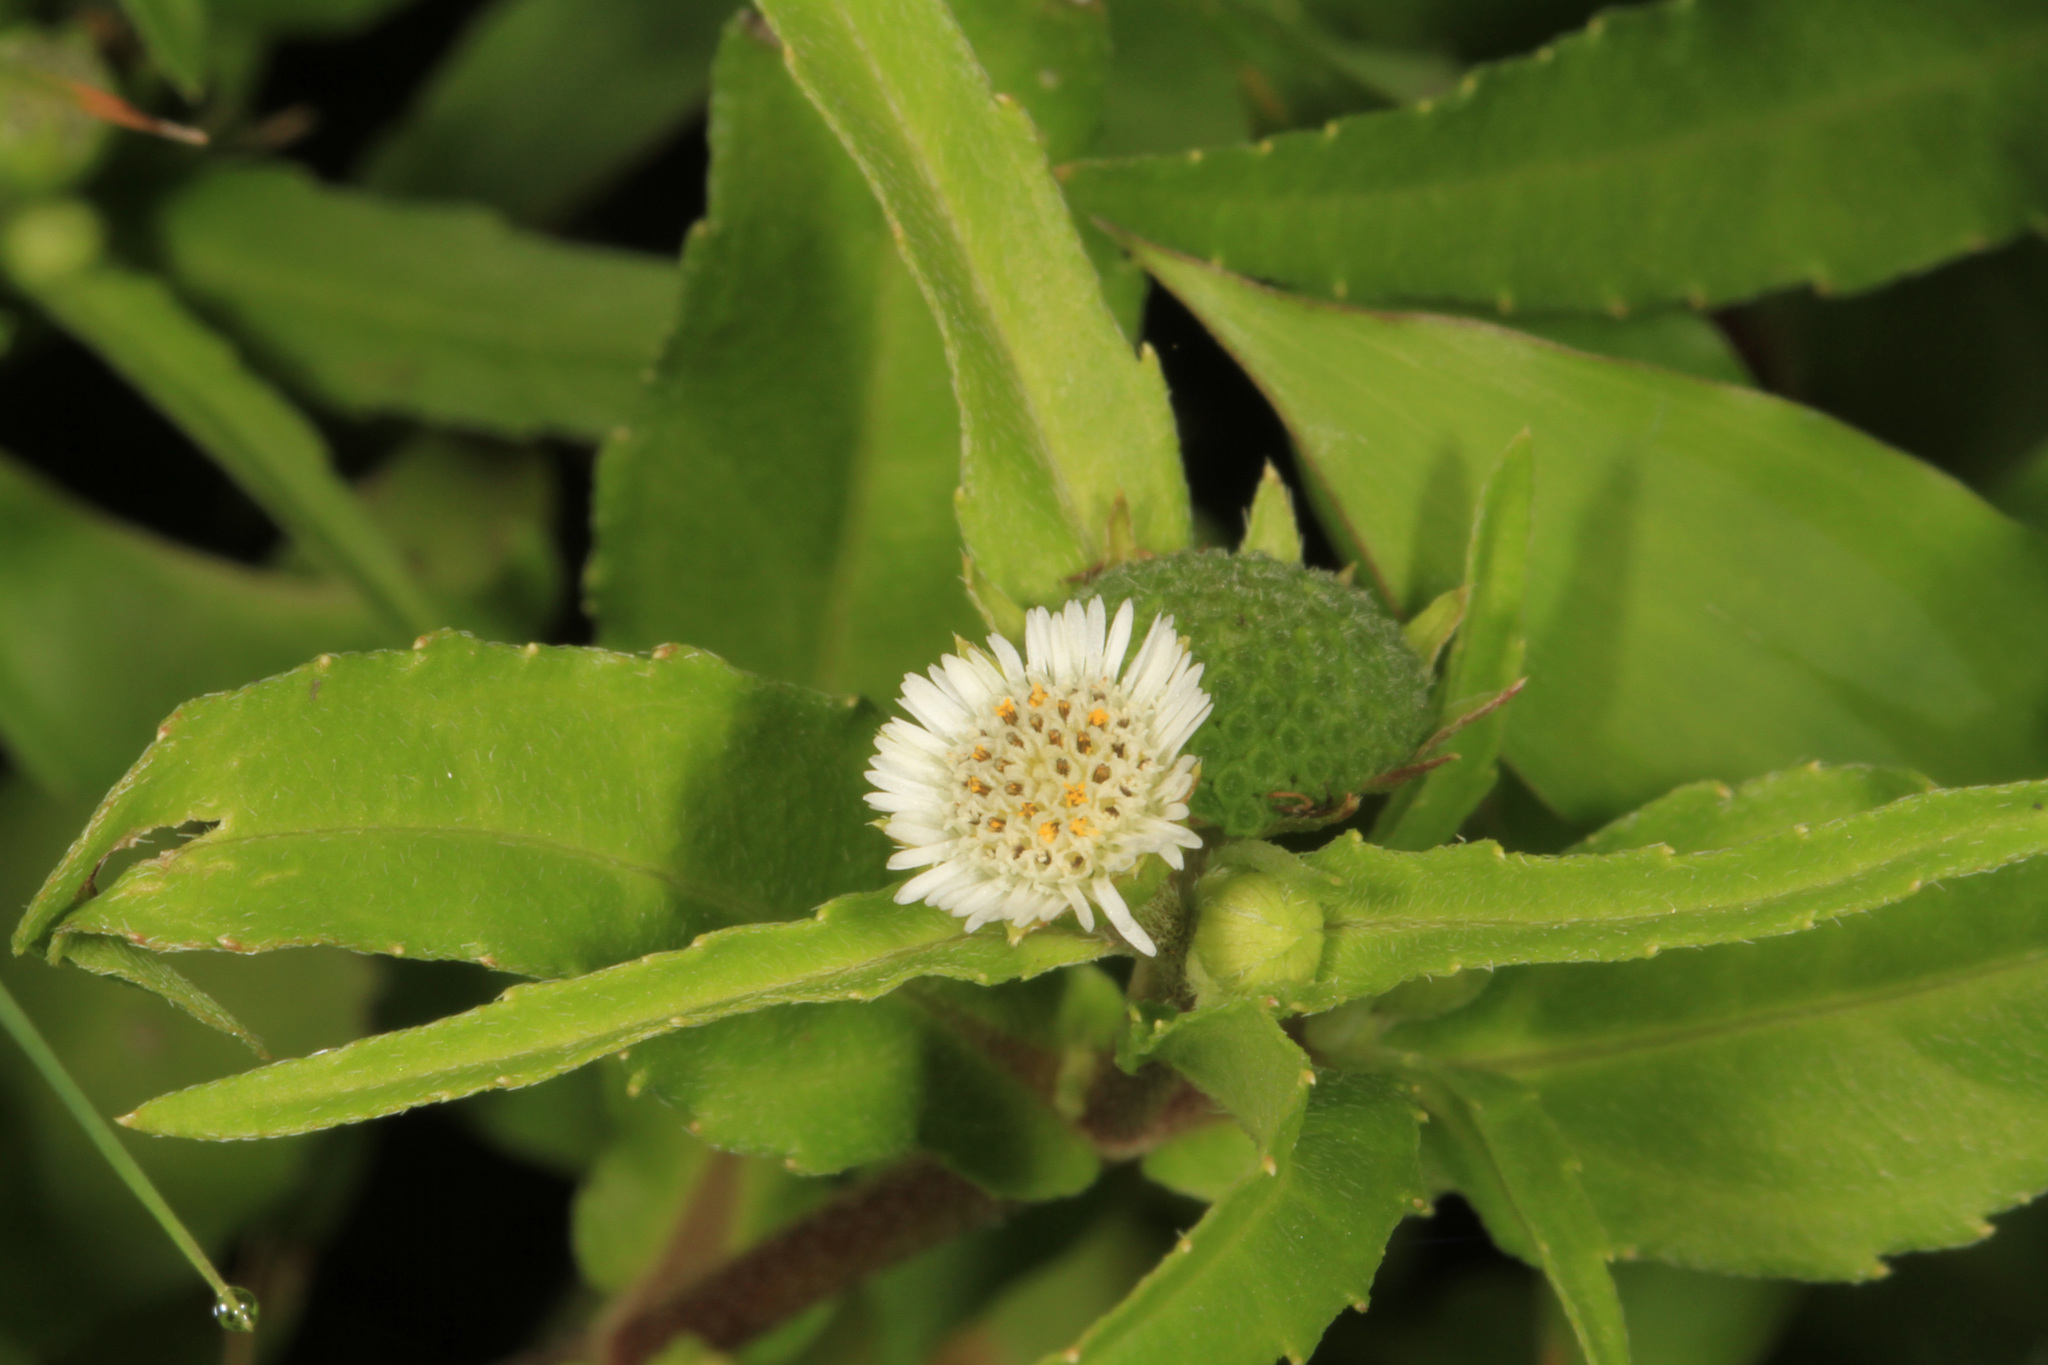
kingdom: Plantae
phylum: Tracheophyta
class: Magnoliopsida
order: Asterales
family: Asteraceae
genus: Eclipta
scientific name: Eclipta prostrata
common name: False daisy
